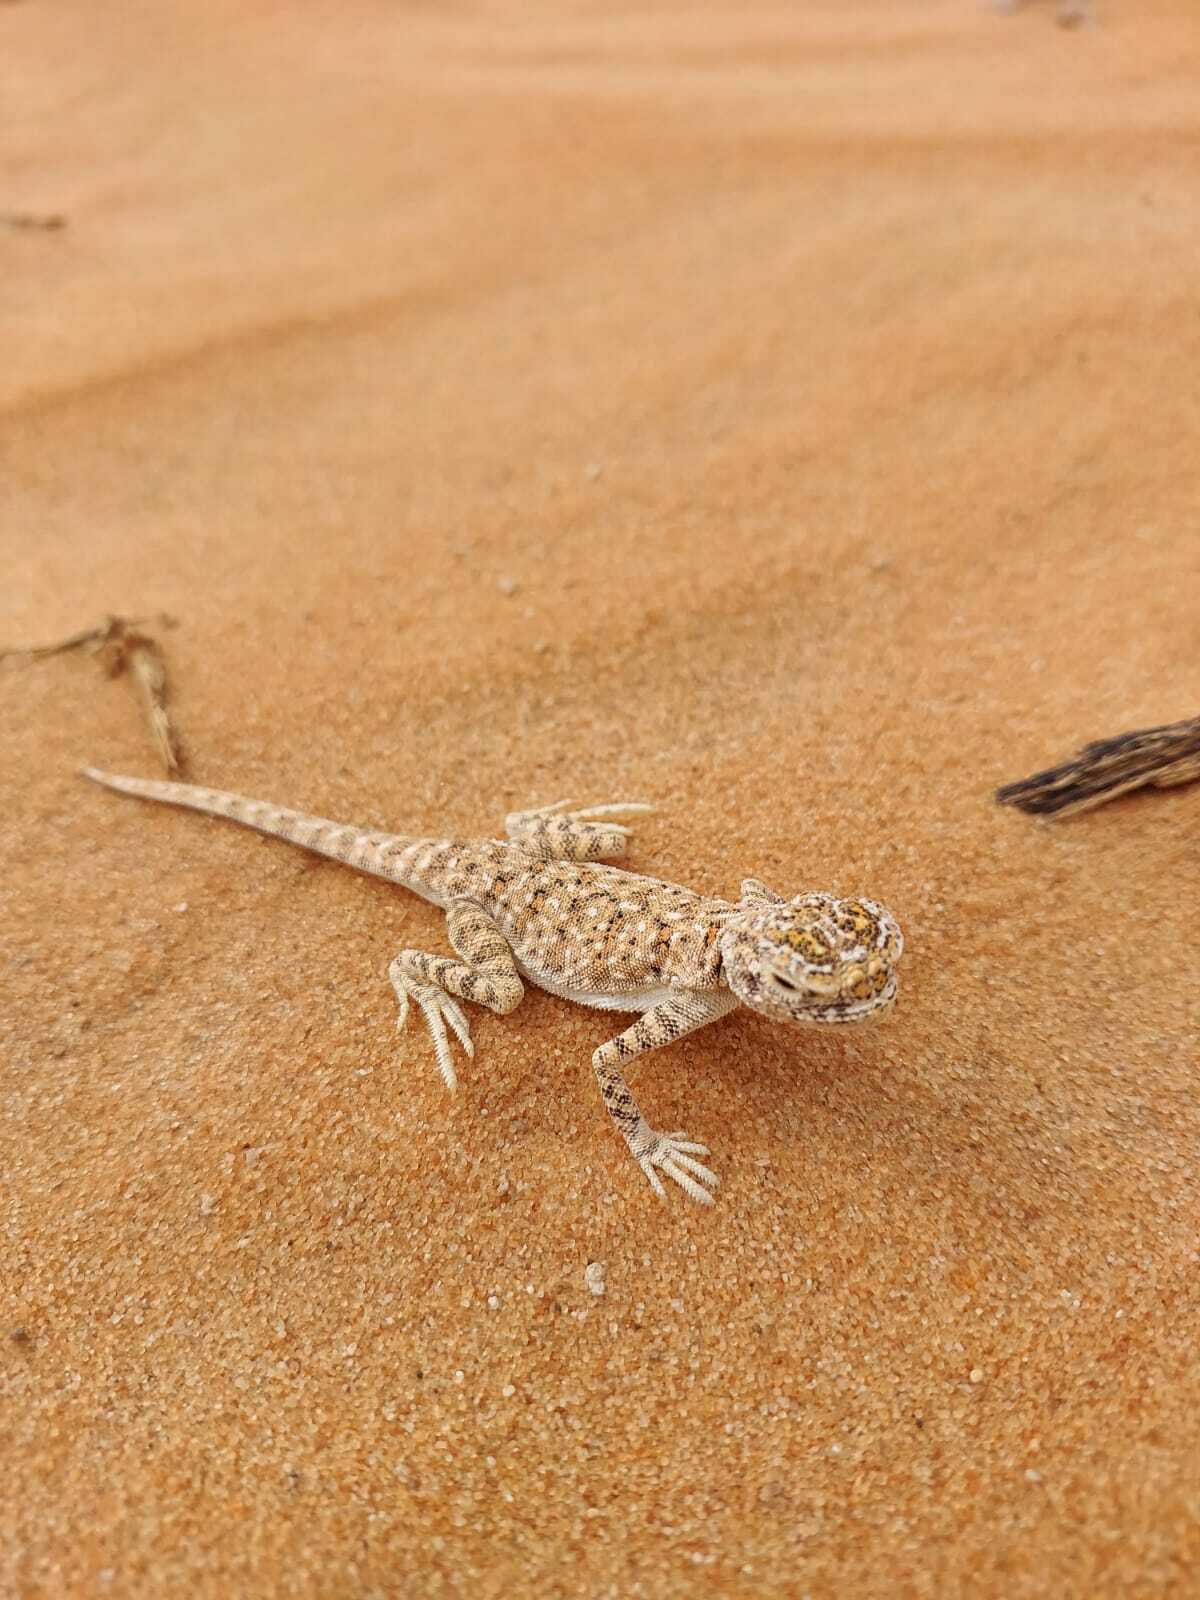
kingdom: Animalia
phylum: Chordata
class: Squamata
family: Agamidae
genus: Phrynocephalus
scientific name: Phrynocephalus arabicus
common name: Arabian toad-headed agama
